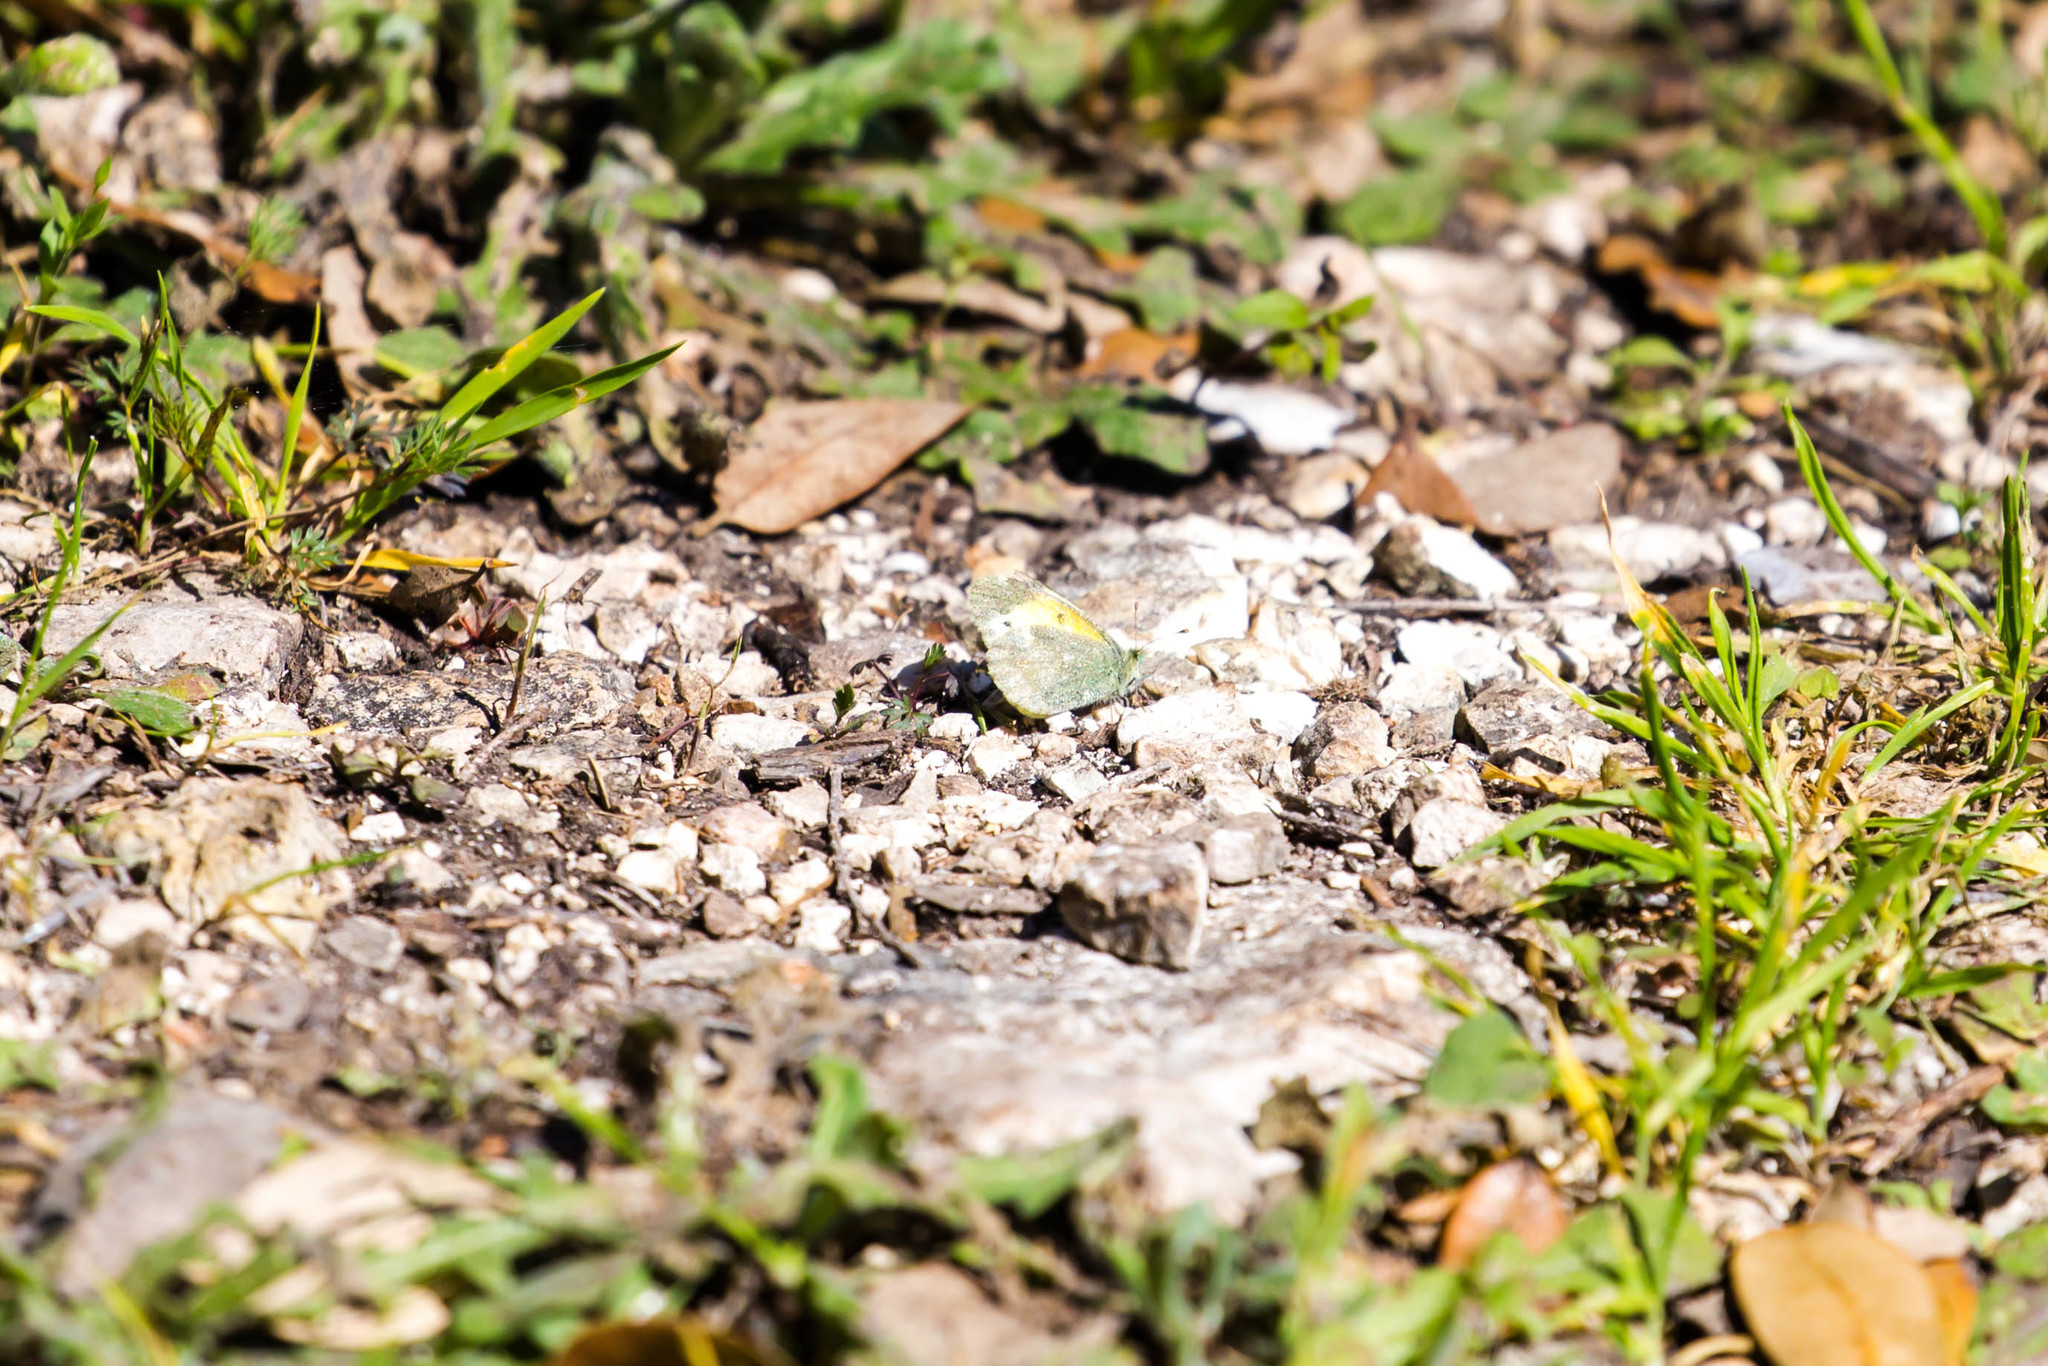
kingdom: Animalia
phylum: Arthropoda
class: Insecta
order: Lepidoptera
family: Pieridae
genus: Nathalis
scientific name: Nathalis iole
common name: Dainty sulphur
